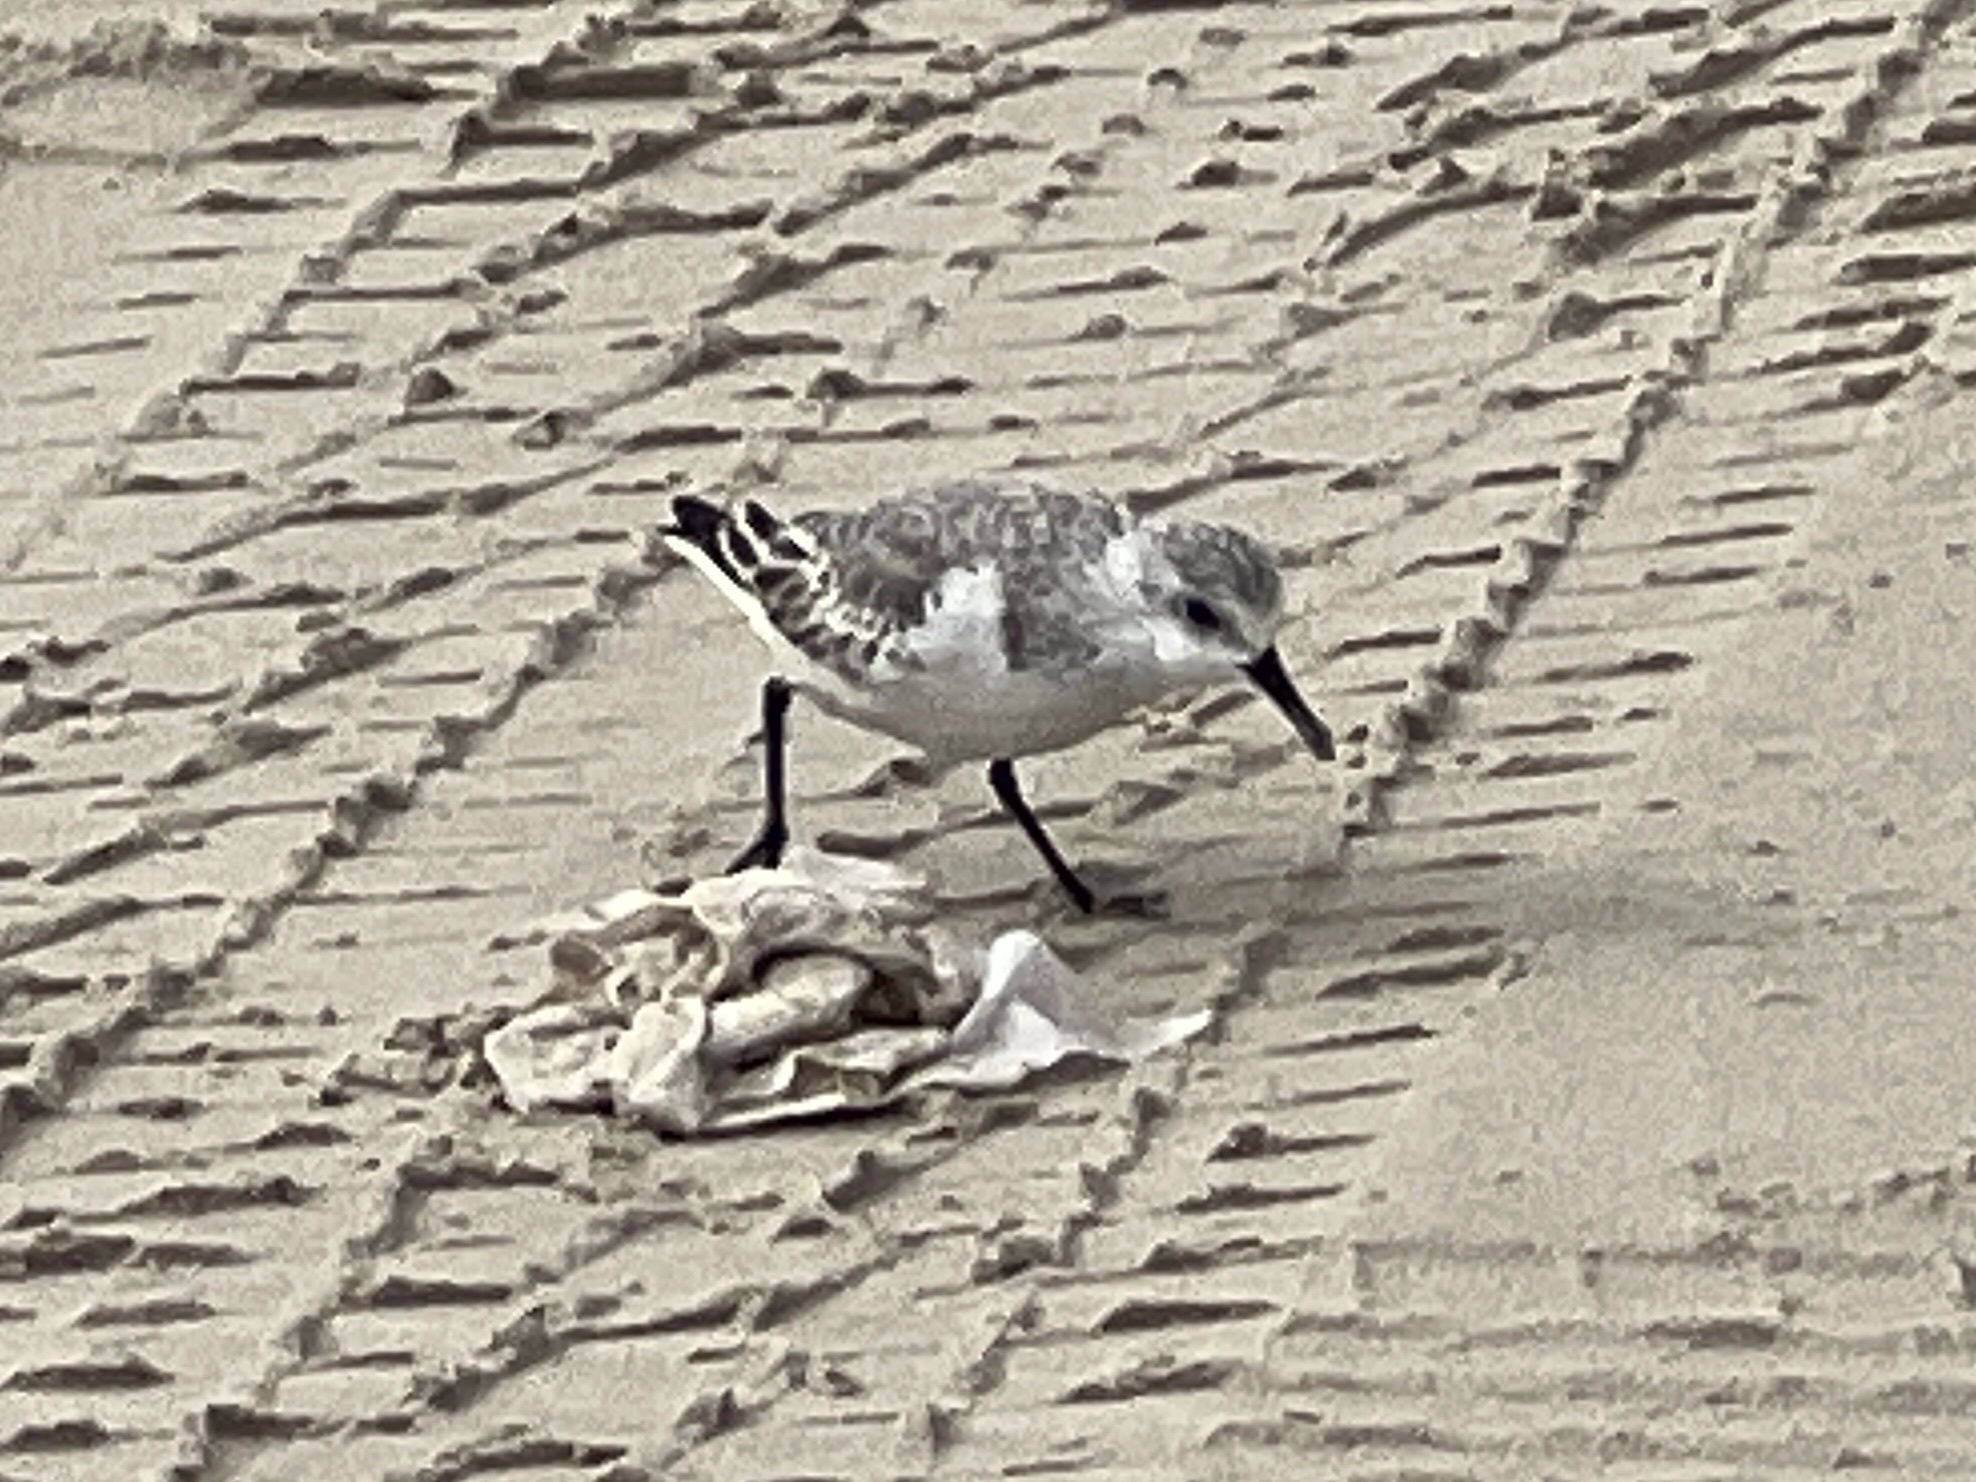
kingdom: Animalia
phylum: Chordata
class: Aves
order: Charadriiformes
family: Scolopacidae
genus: Calidris
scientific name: Calidris alba
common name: Sanderling
